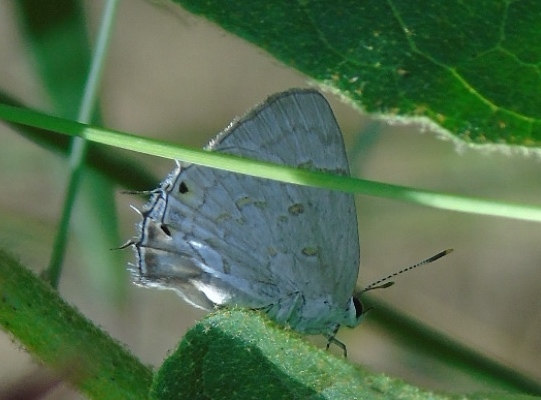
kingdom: Animalia
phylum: Arthropoda
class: Insecta
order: Lepidoptera
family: Lycaenidae
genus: Tmolus
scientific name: Tmolus echion
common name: Red-spotted hairstreak
